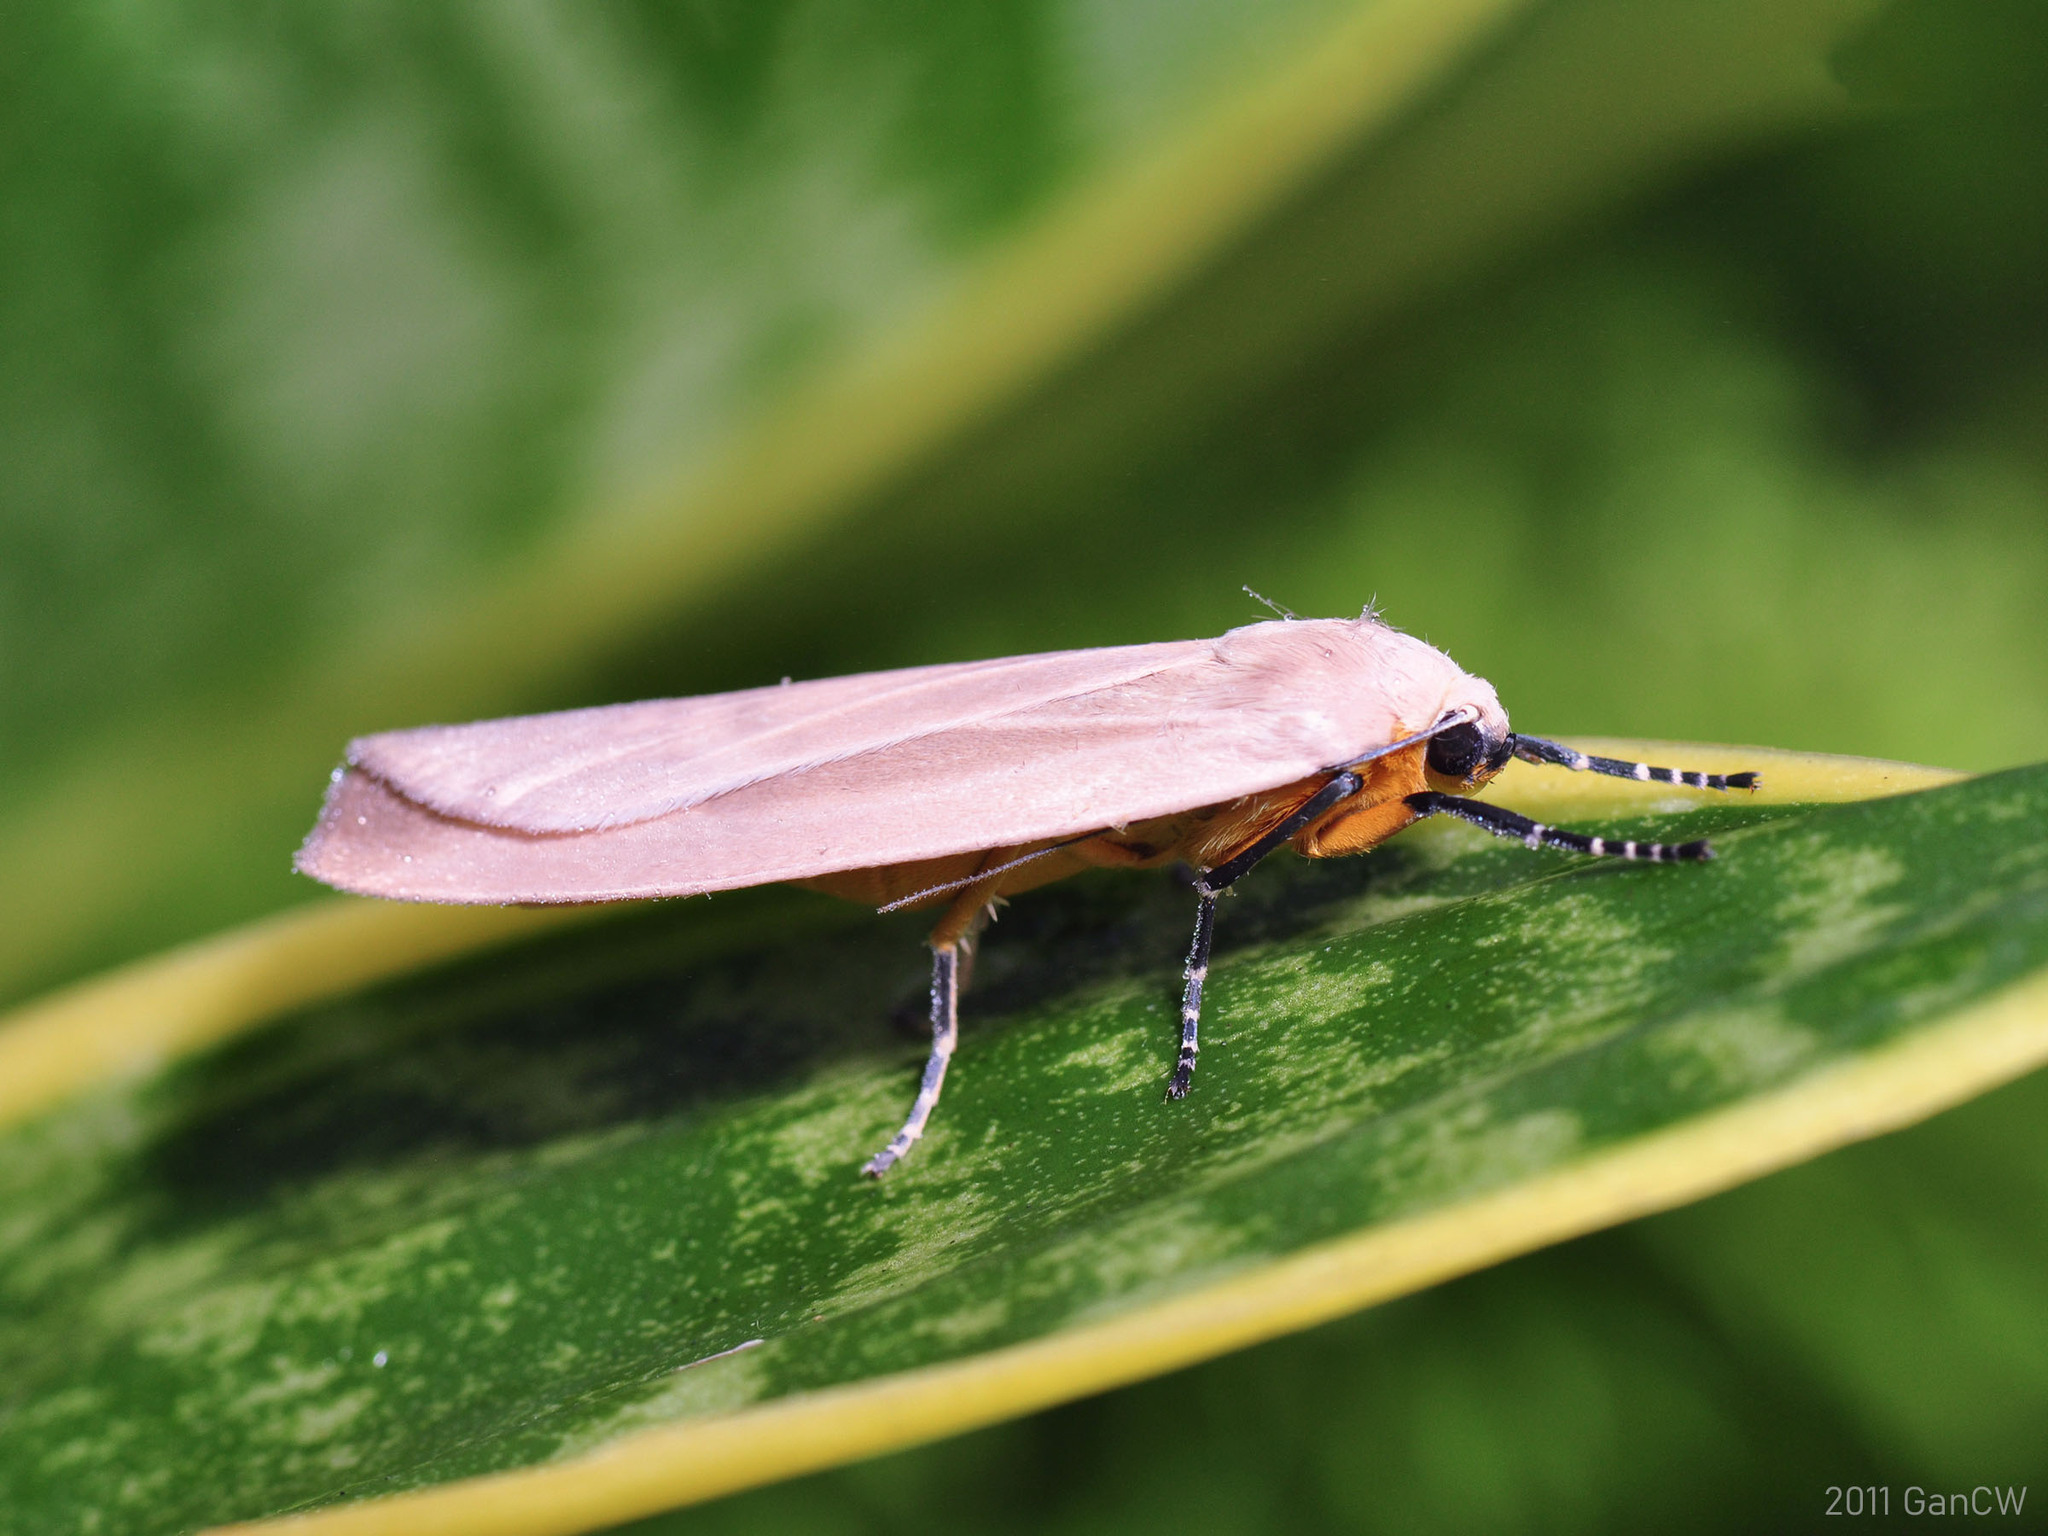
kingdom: Animalia
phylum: Arthropoda
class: Insecta
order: Lepidoptera
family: Erebidae
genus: Pareuchaetes
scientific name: Pareuchaetes insulata
